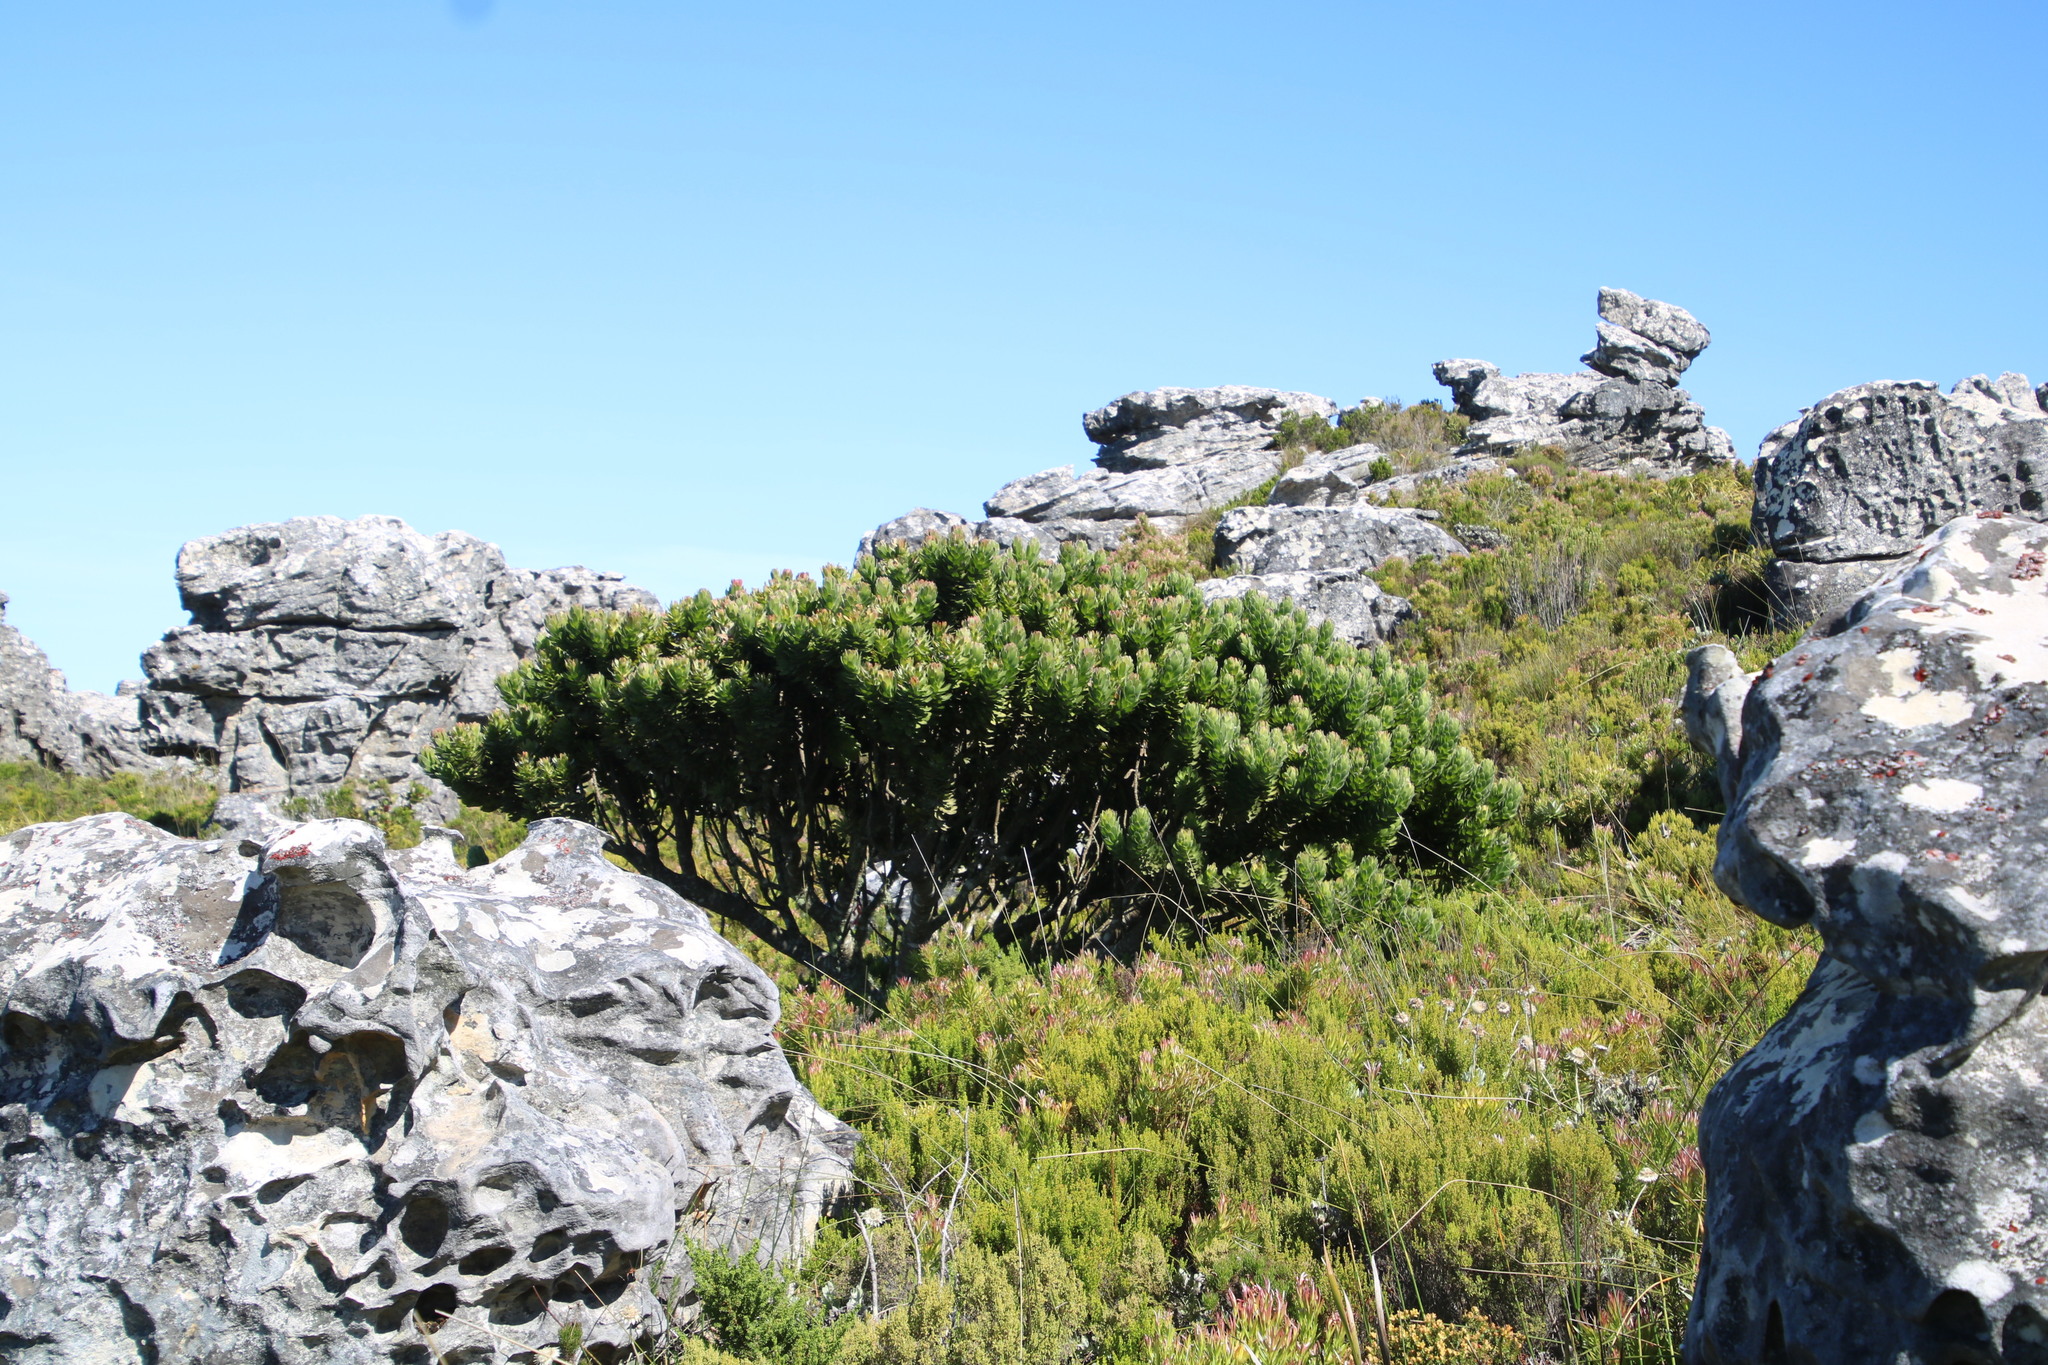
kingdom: Plantae
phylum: Tracheophyta
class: Magnoliopsida
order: Proteales
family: Proteaceae
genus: Mimetes
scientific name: Mimetes fimbriifolius
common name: Fringed bottlebrush
